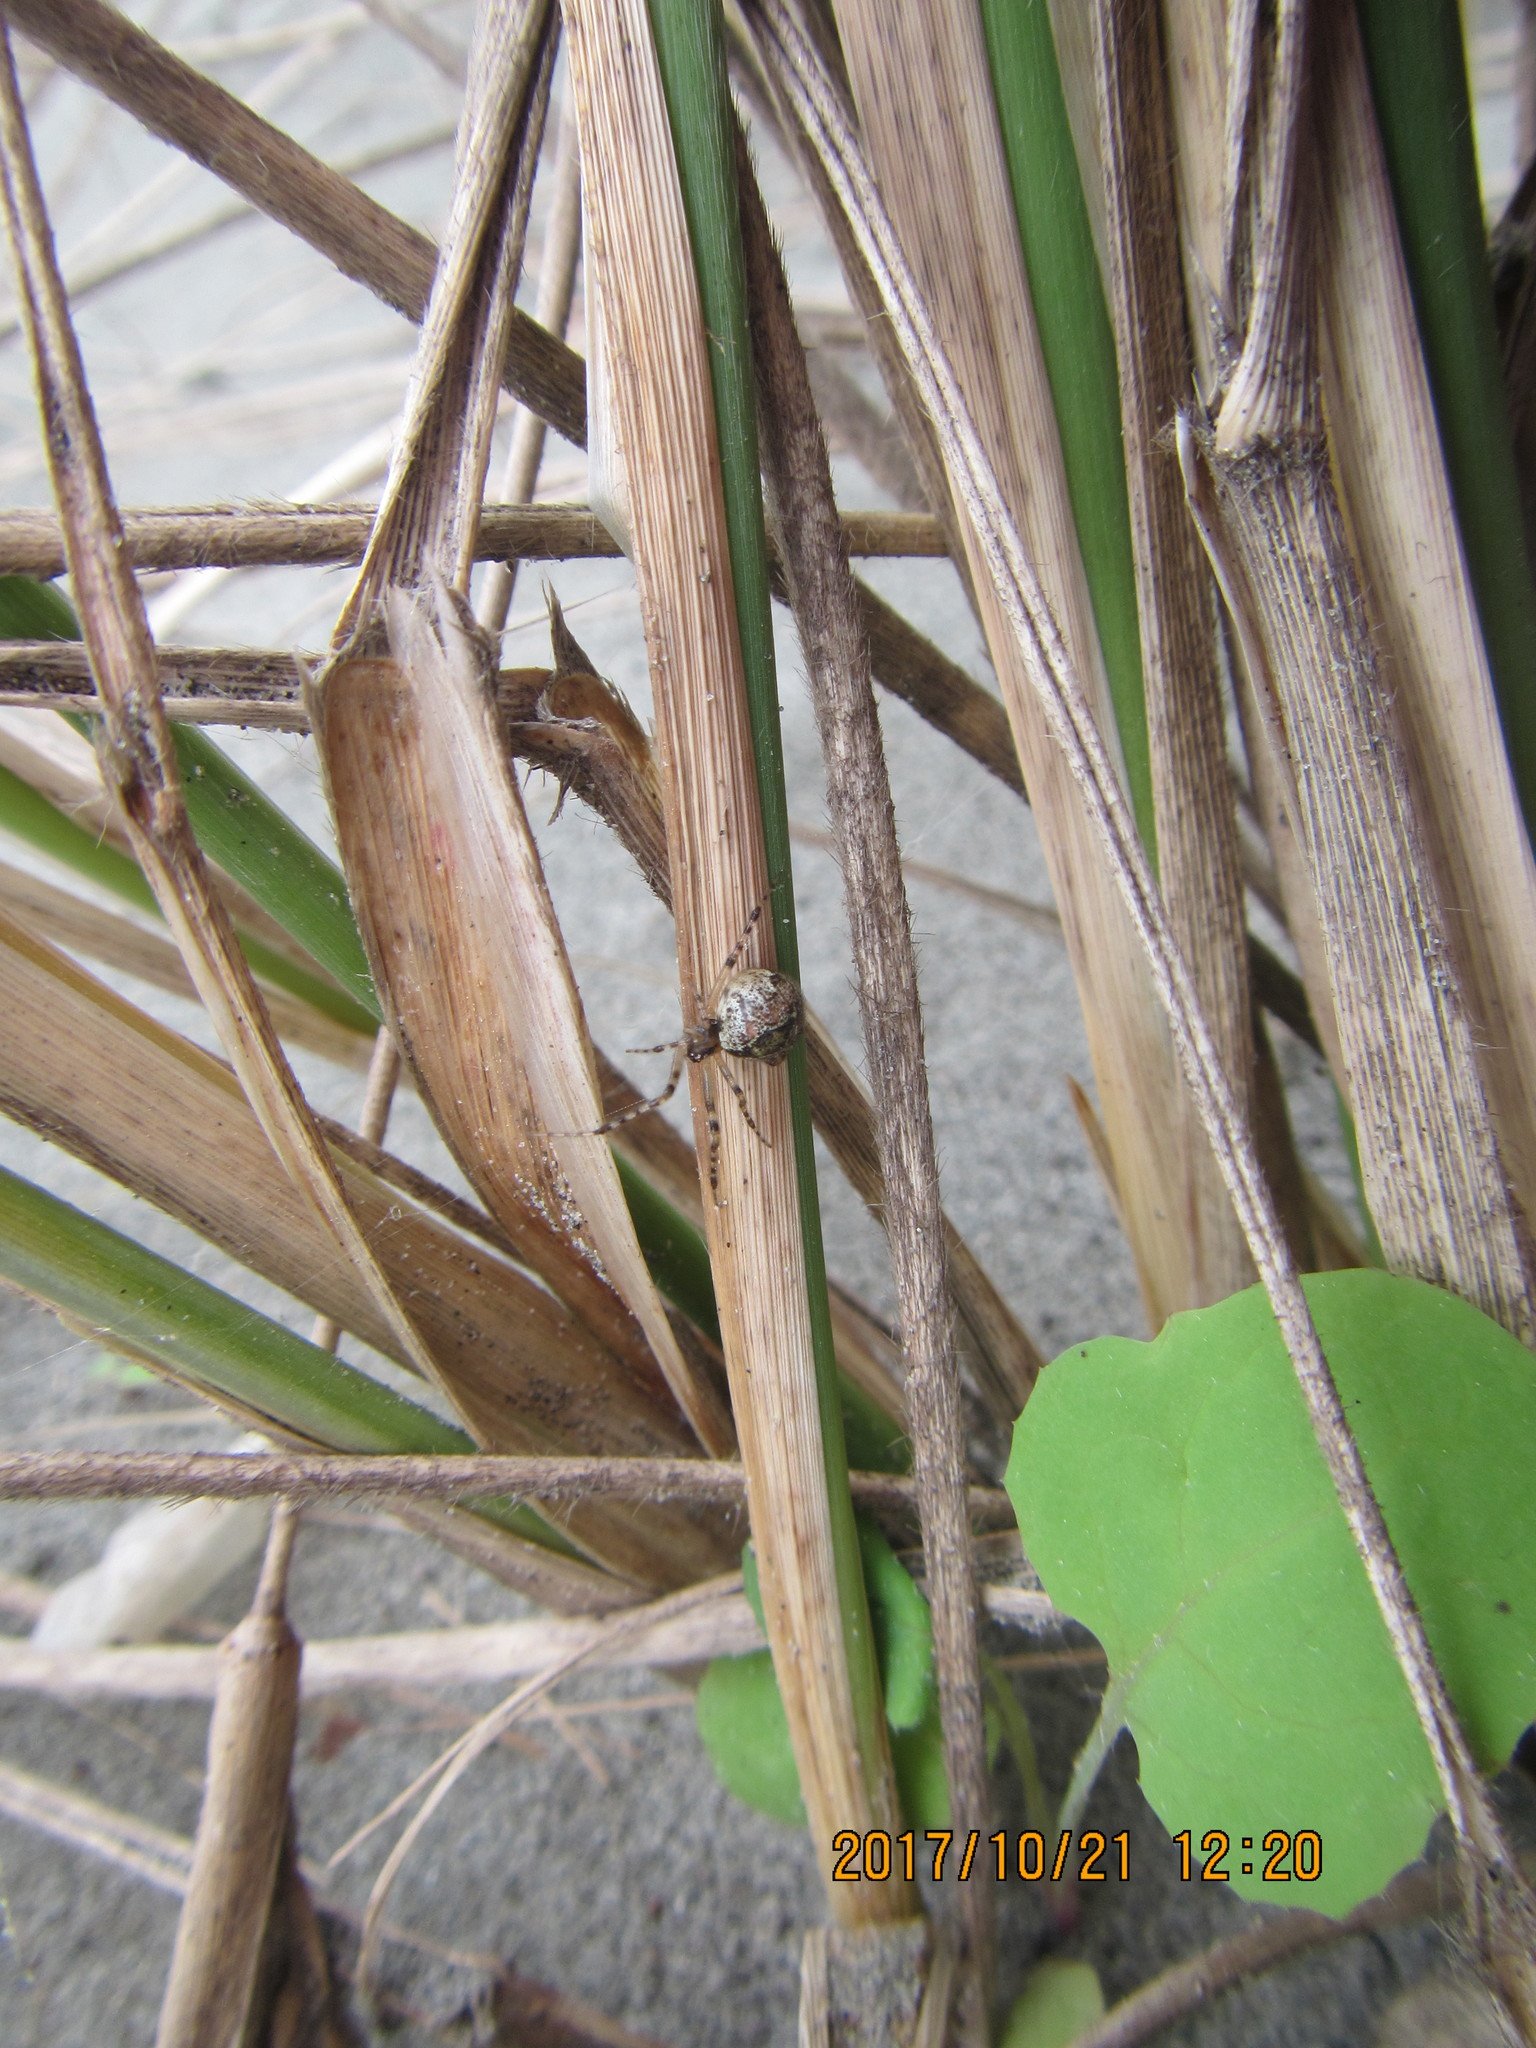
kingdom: Animalia
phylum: Arthropoda
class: Arachnida
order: Araneae
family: Theridiidae
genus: Cryptachaea
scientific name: Cryptachaea veruculata
